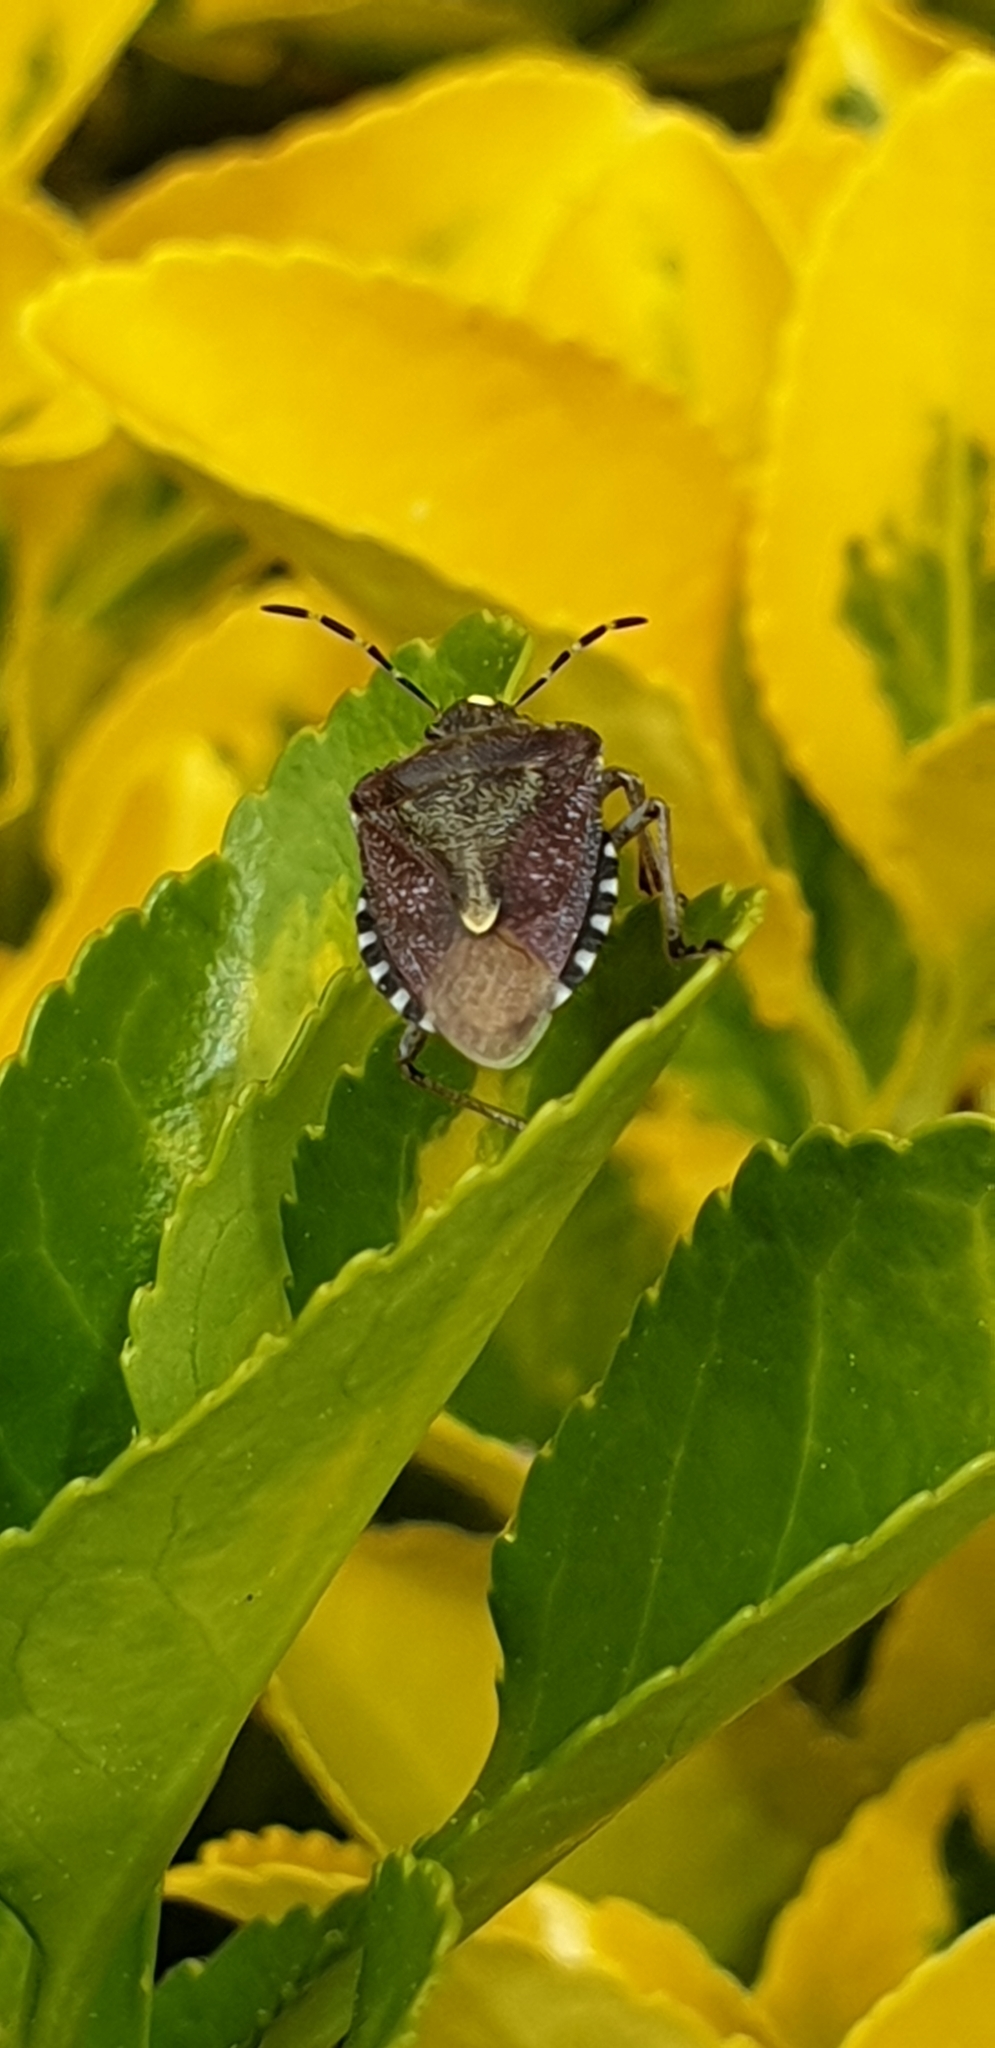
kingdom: Animalia
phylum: Arthropoda
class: Insecta
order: Hemiptera
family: Pentatomidae
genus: Dolycoris
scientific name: Dolycoris baccarum
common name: Sloe bug
